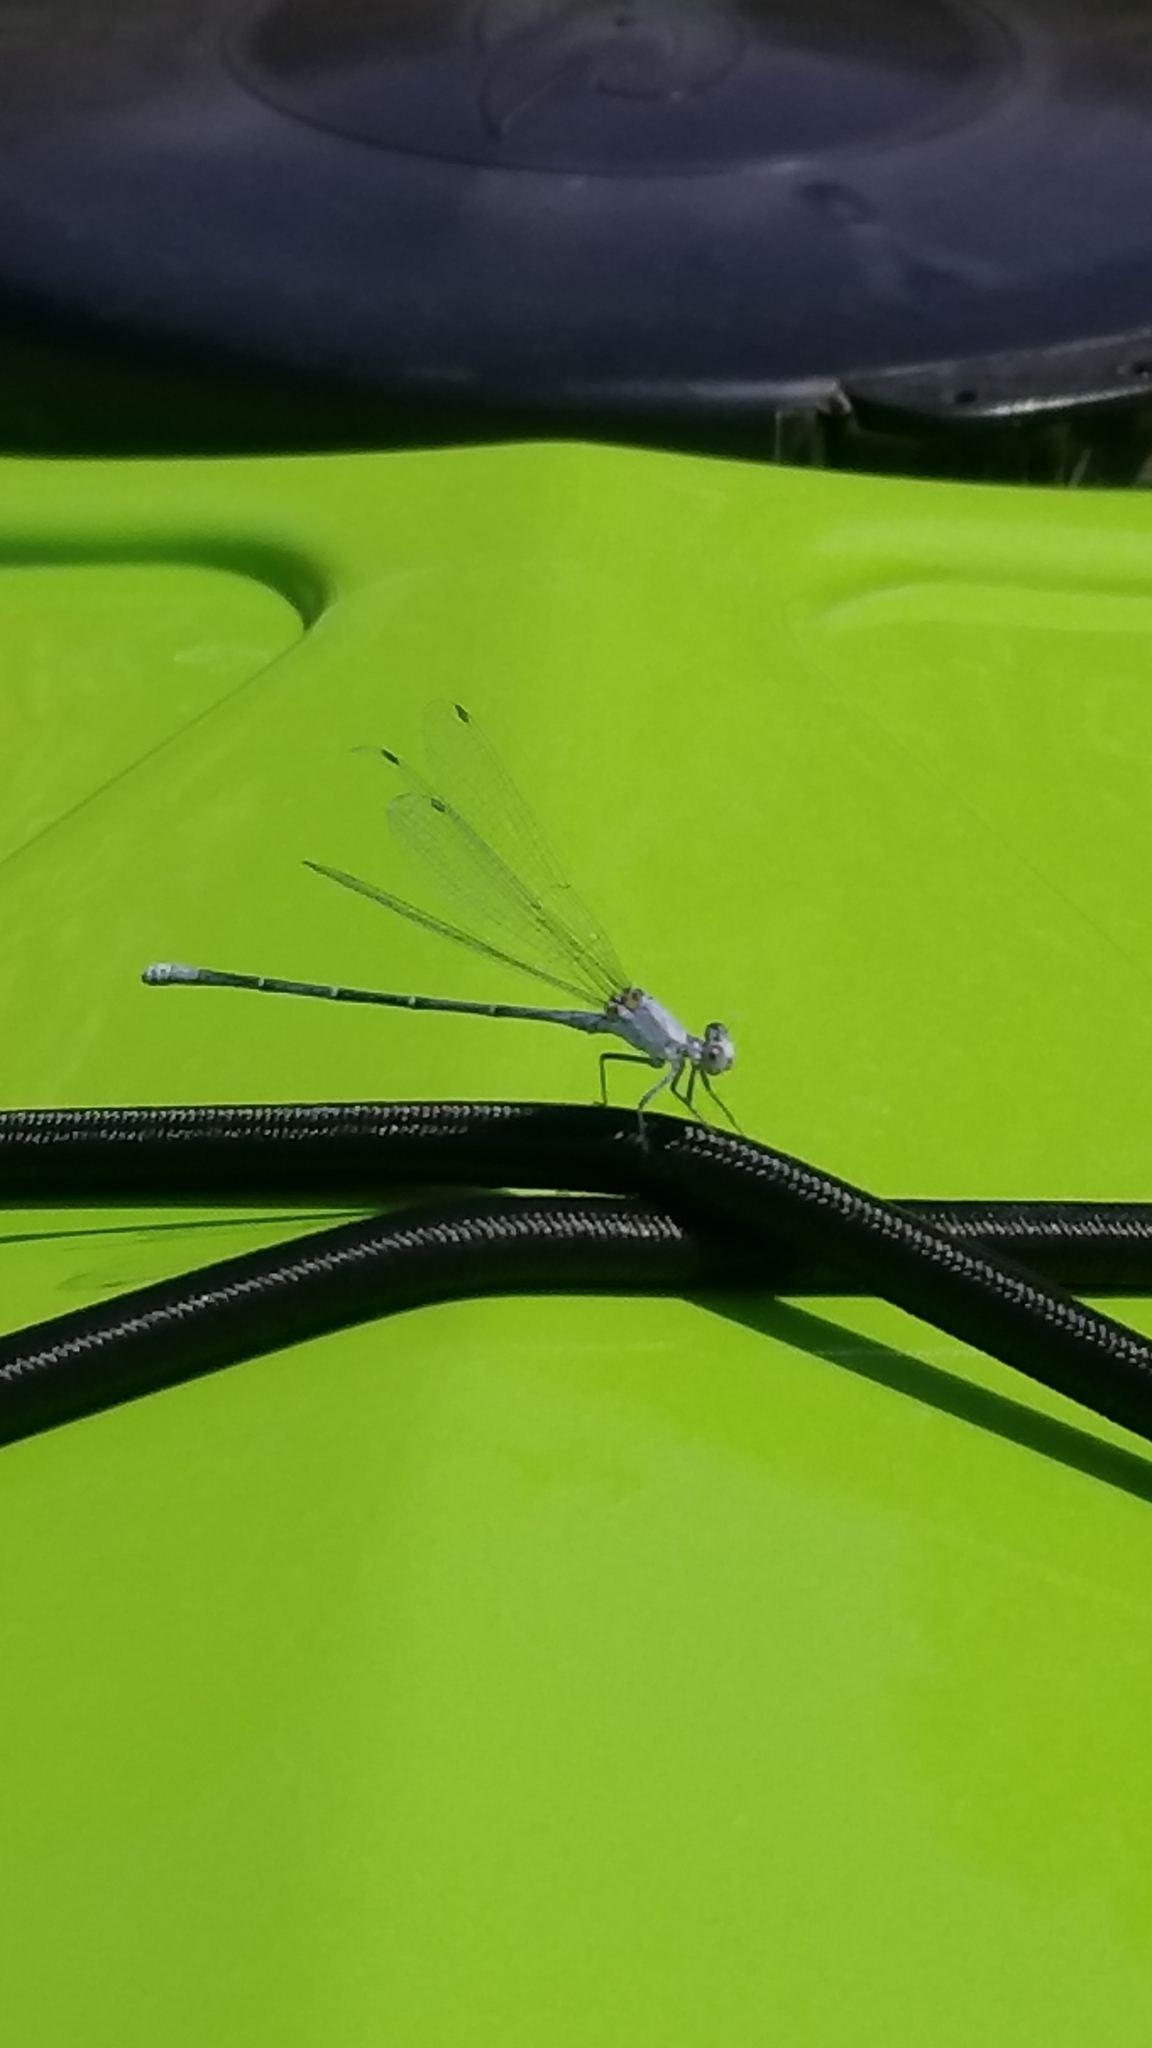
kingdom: Animalia
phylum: Arthropoda
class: Insecta
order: Odonata
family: Coenagrionidae
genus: Argia
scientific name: Argia moesta
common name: Powdered dancer
